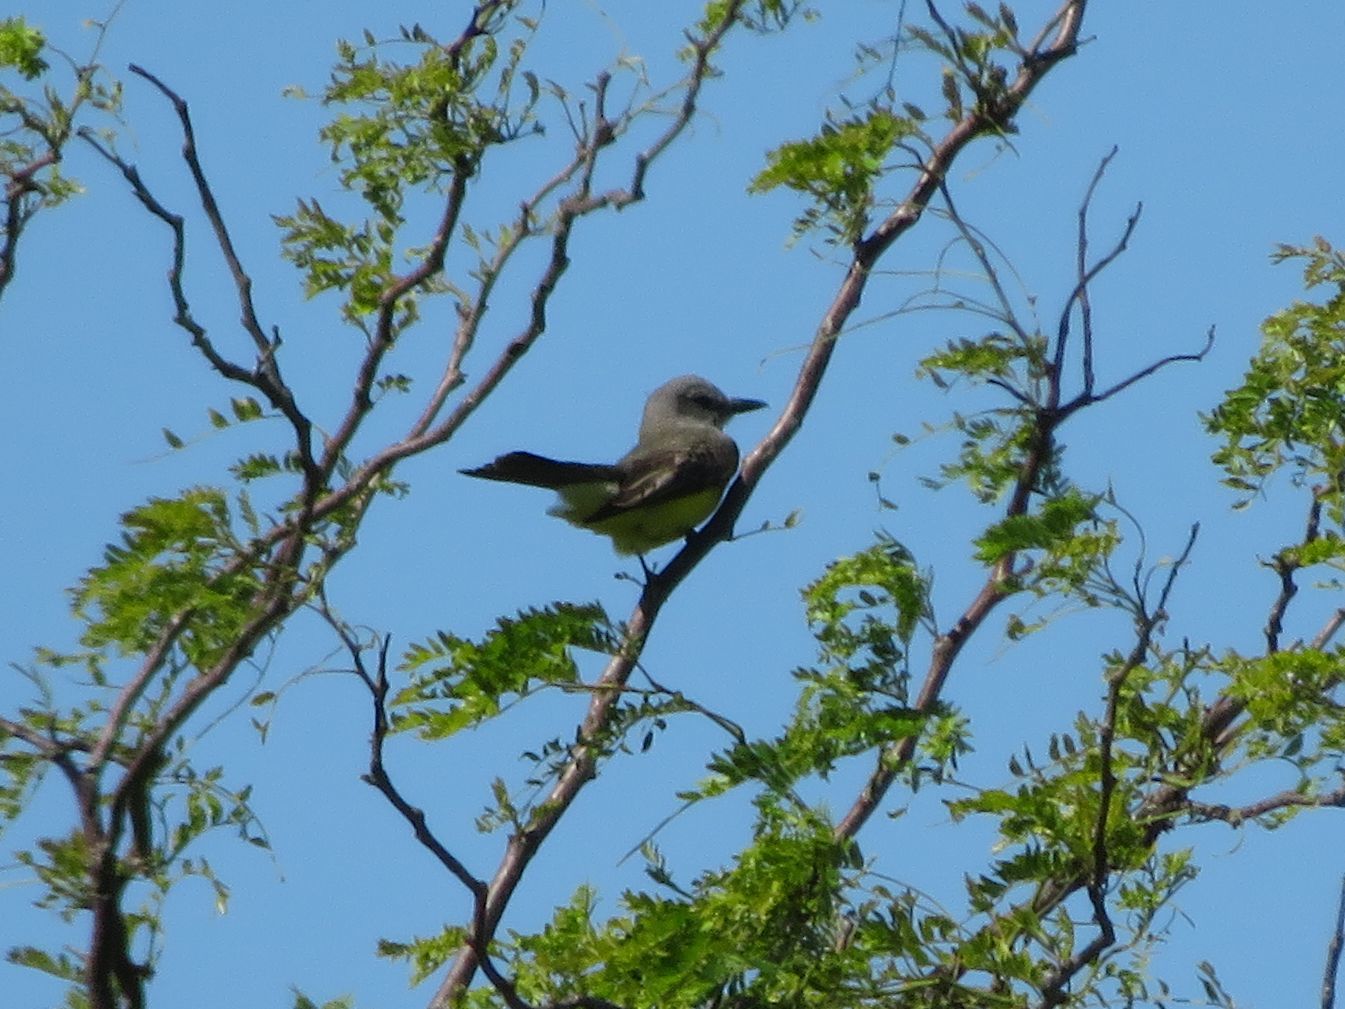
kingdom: Animalia
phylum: Chordata
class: Aves
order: Passeriformes
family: Tyrannidae
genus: Tyrannus
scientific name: Tyrannus melancholicus
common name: Tropical kingbird
